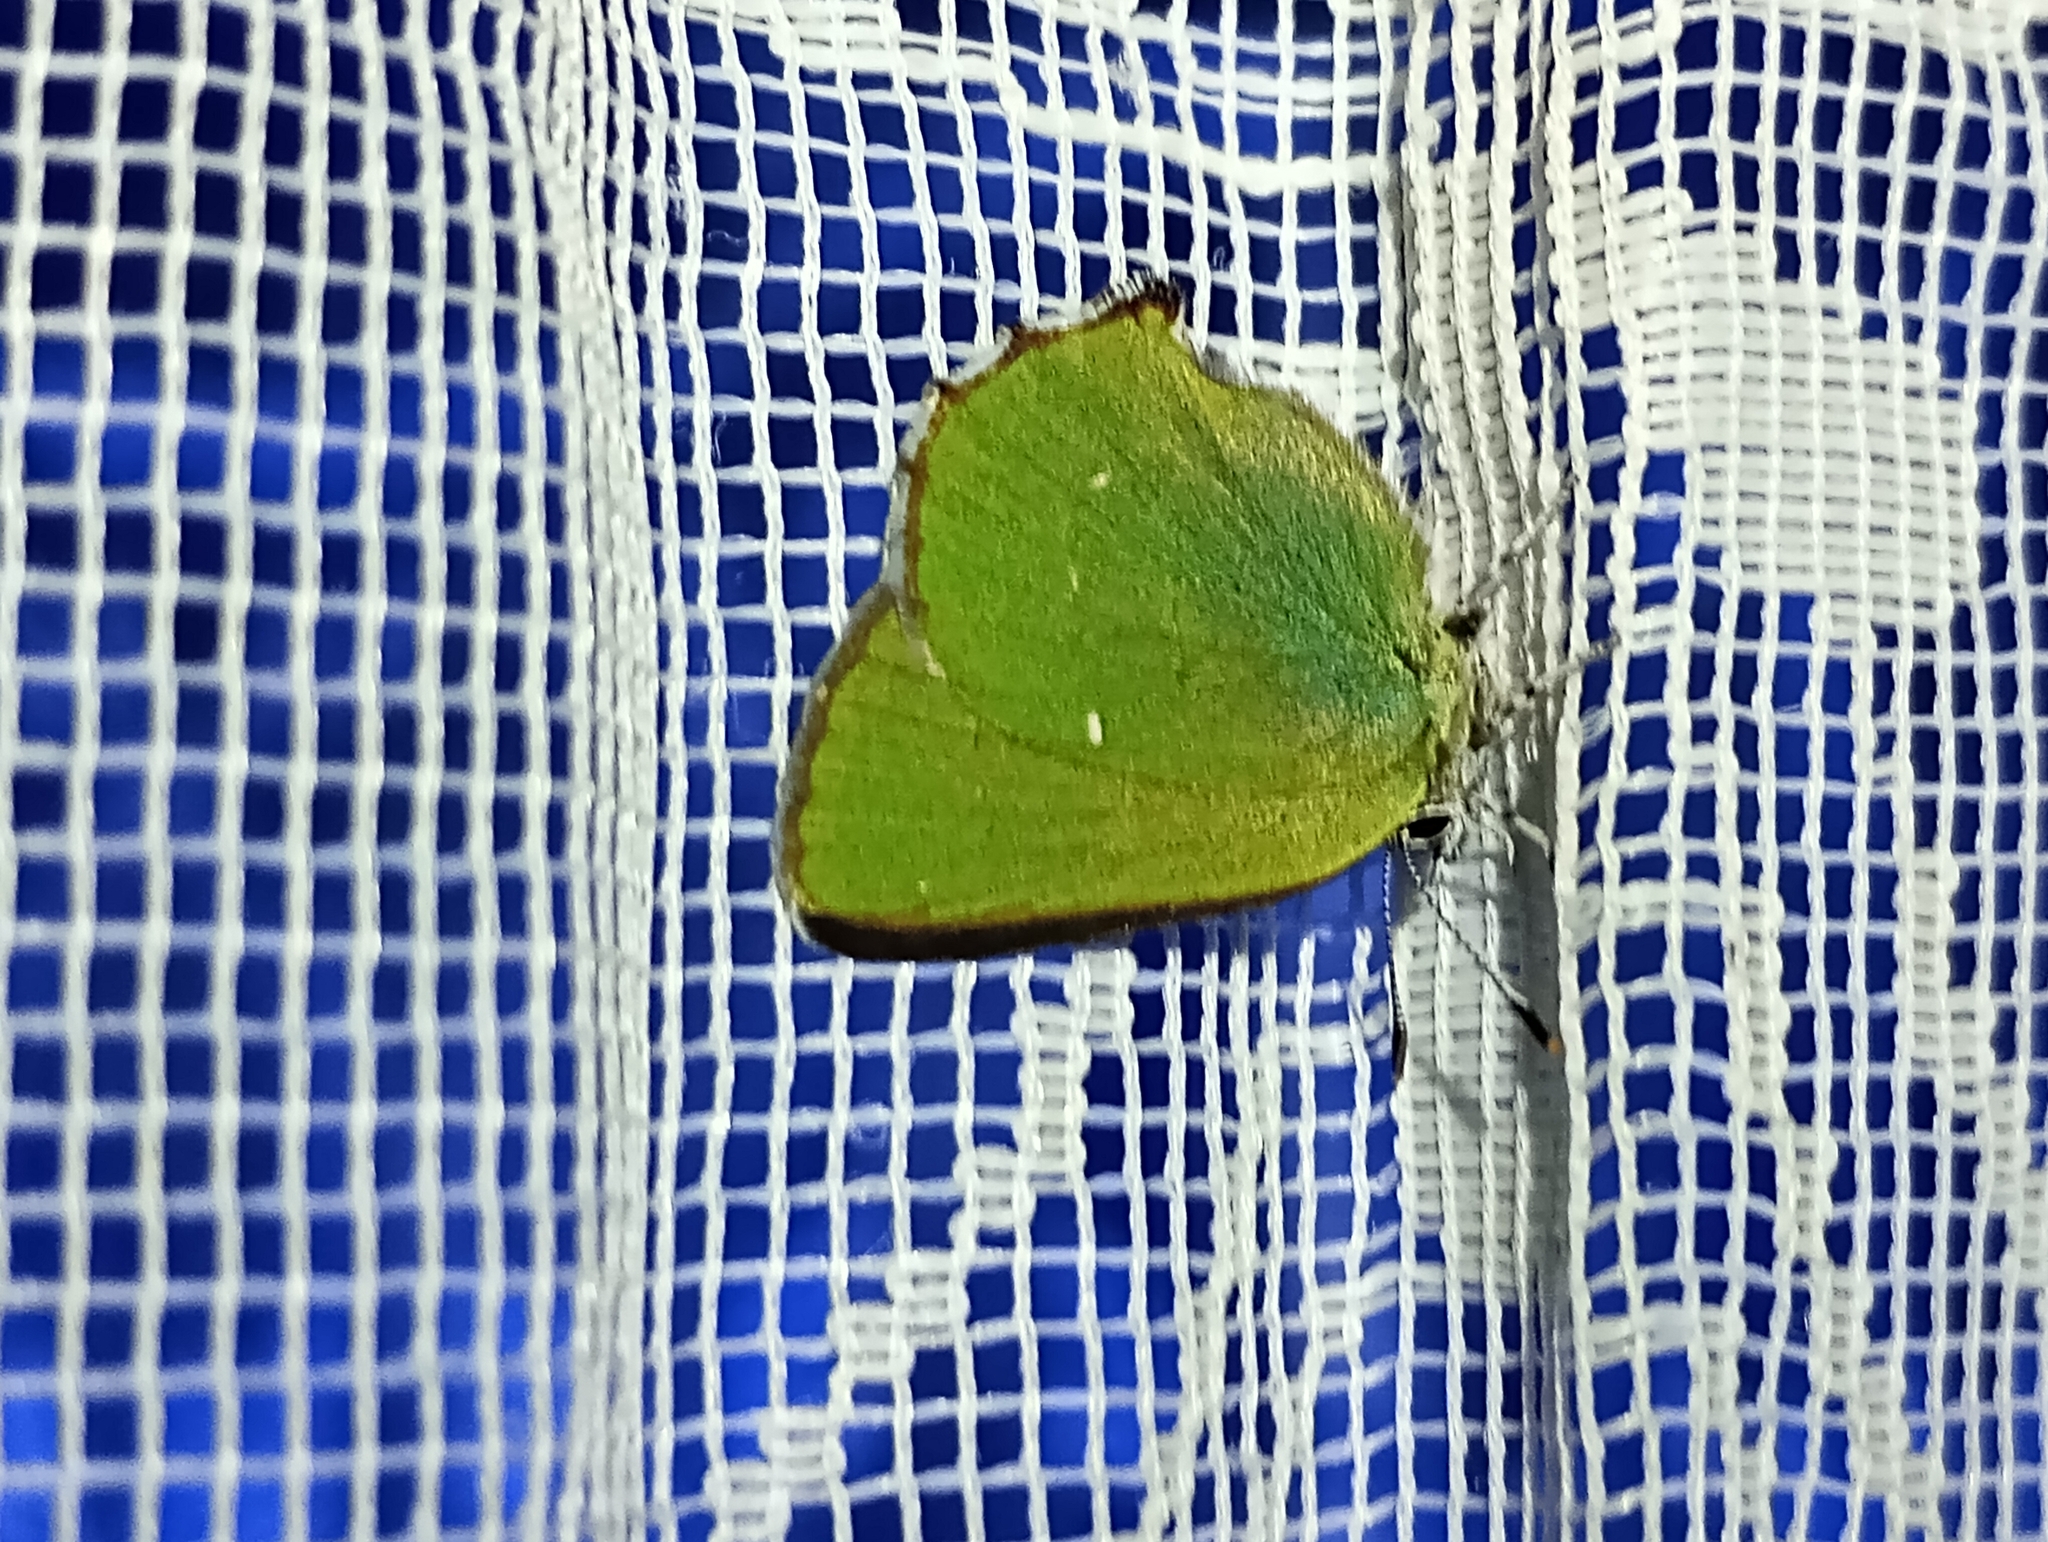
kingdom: Animalia
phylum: Arthropoda
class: Insecta
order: Lepidoptera
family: Lycaenidae
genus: Callophrys
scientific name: Callophrys rubi
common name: Green hairstreak
